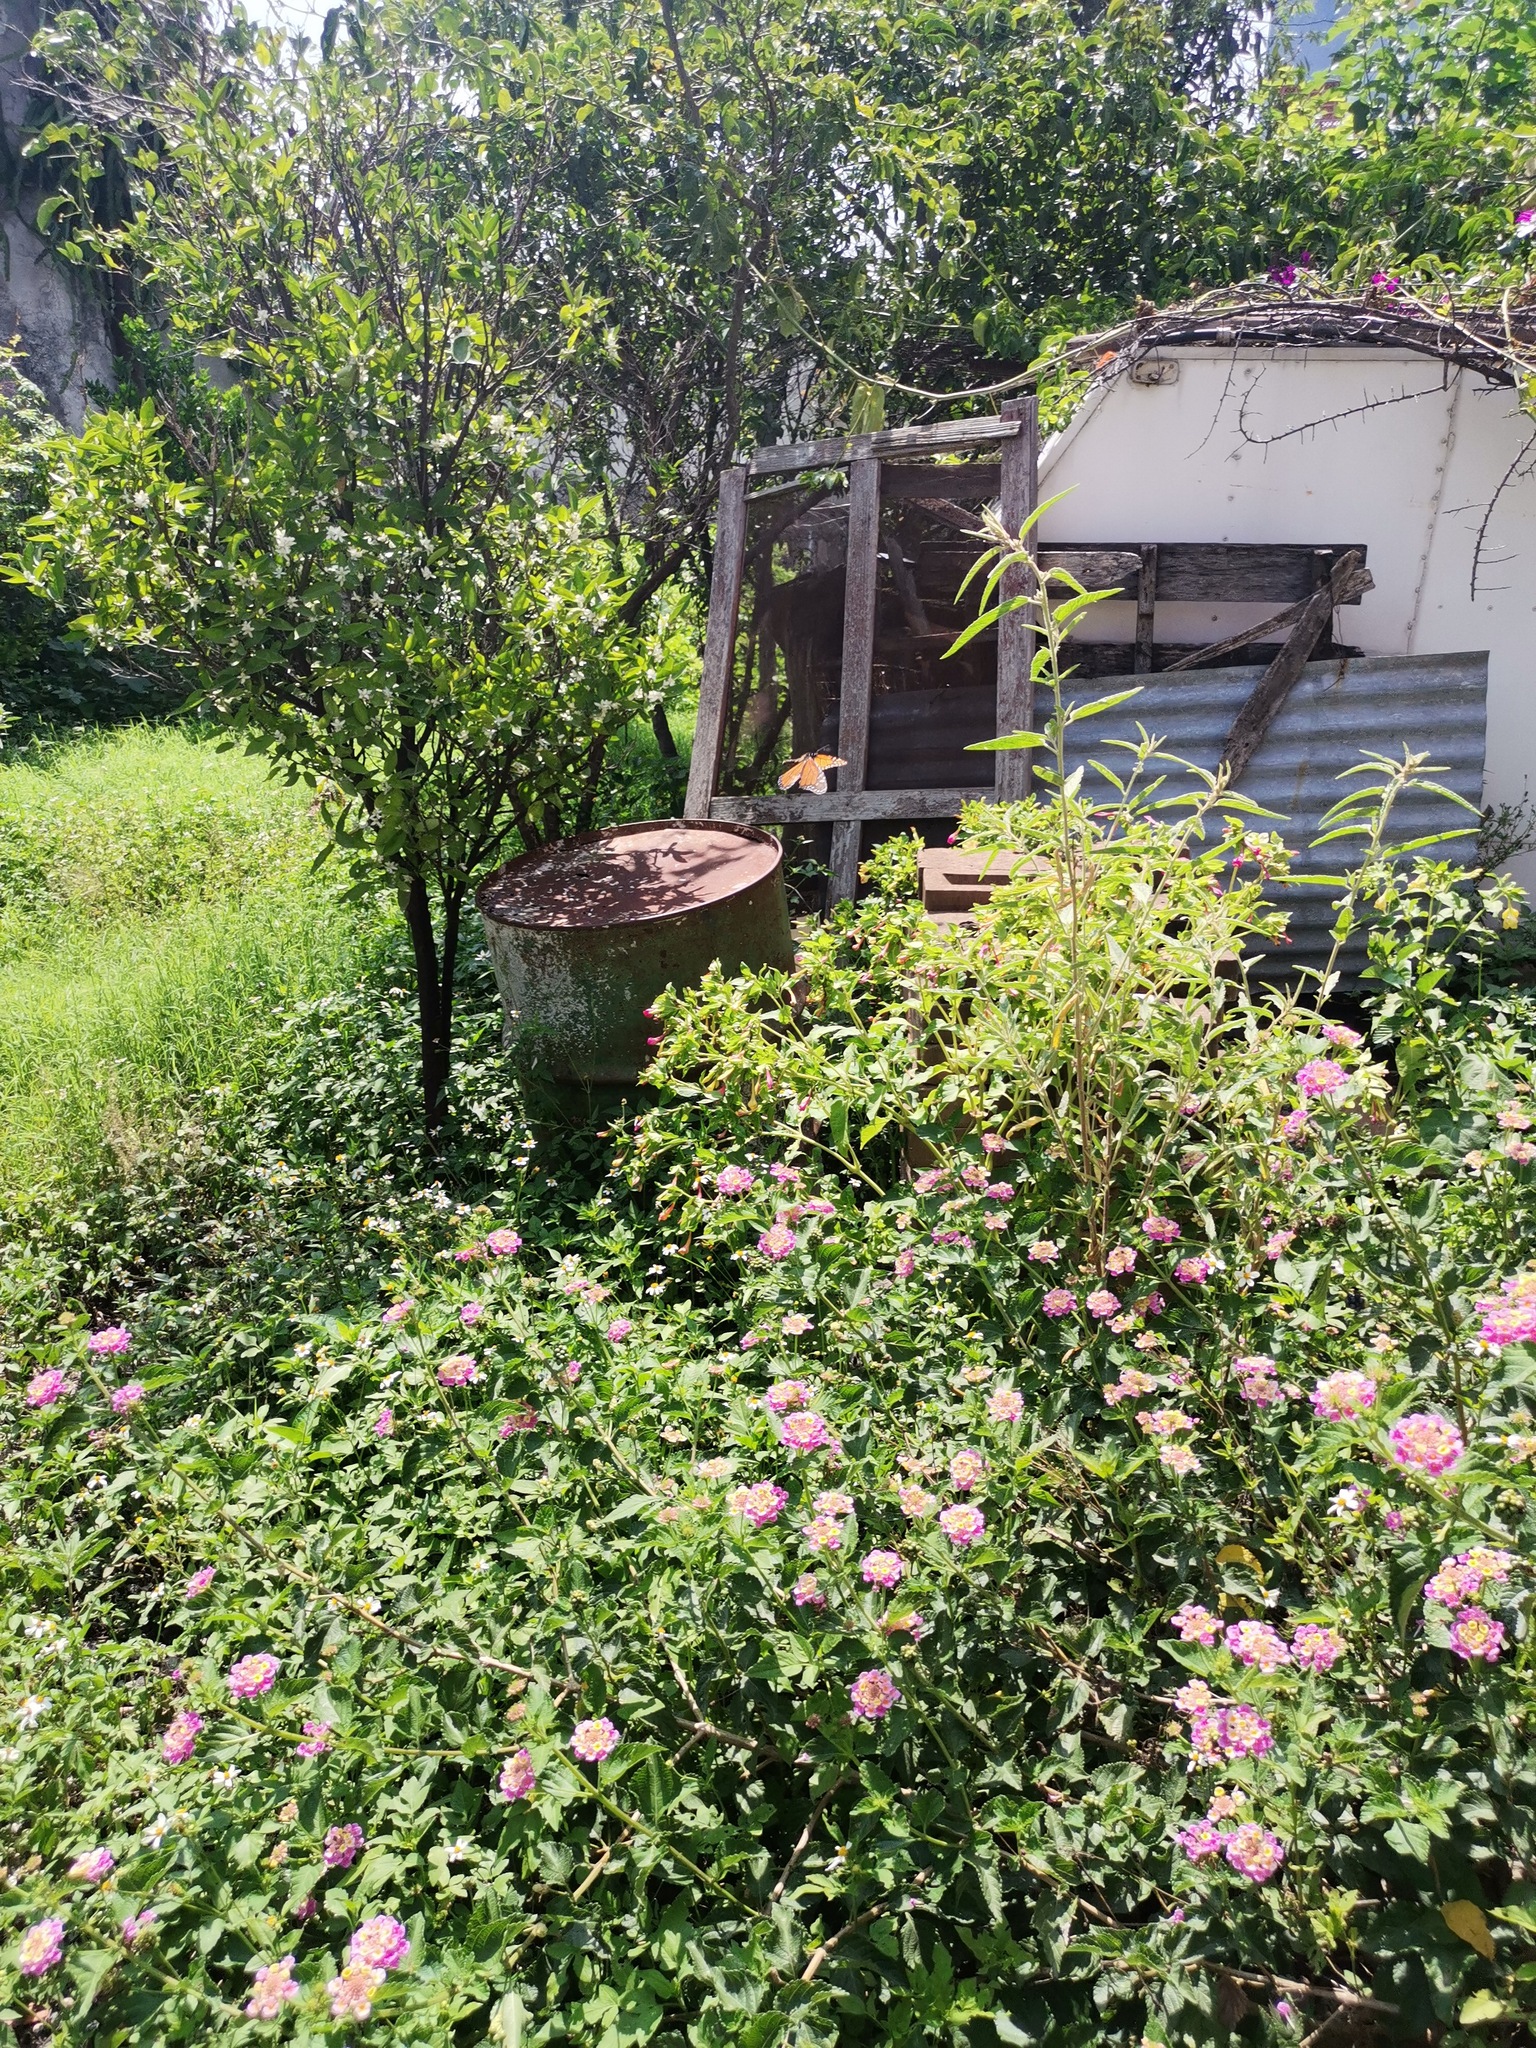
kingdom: Animalia
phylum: Arthropoda
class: Insecta
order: Lepidoptera
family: Nymphalidae
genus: Danaus
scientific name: Danaus plexippus
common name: Monarch
